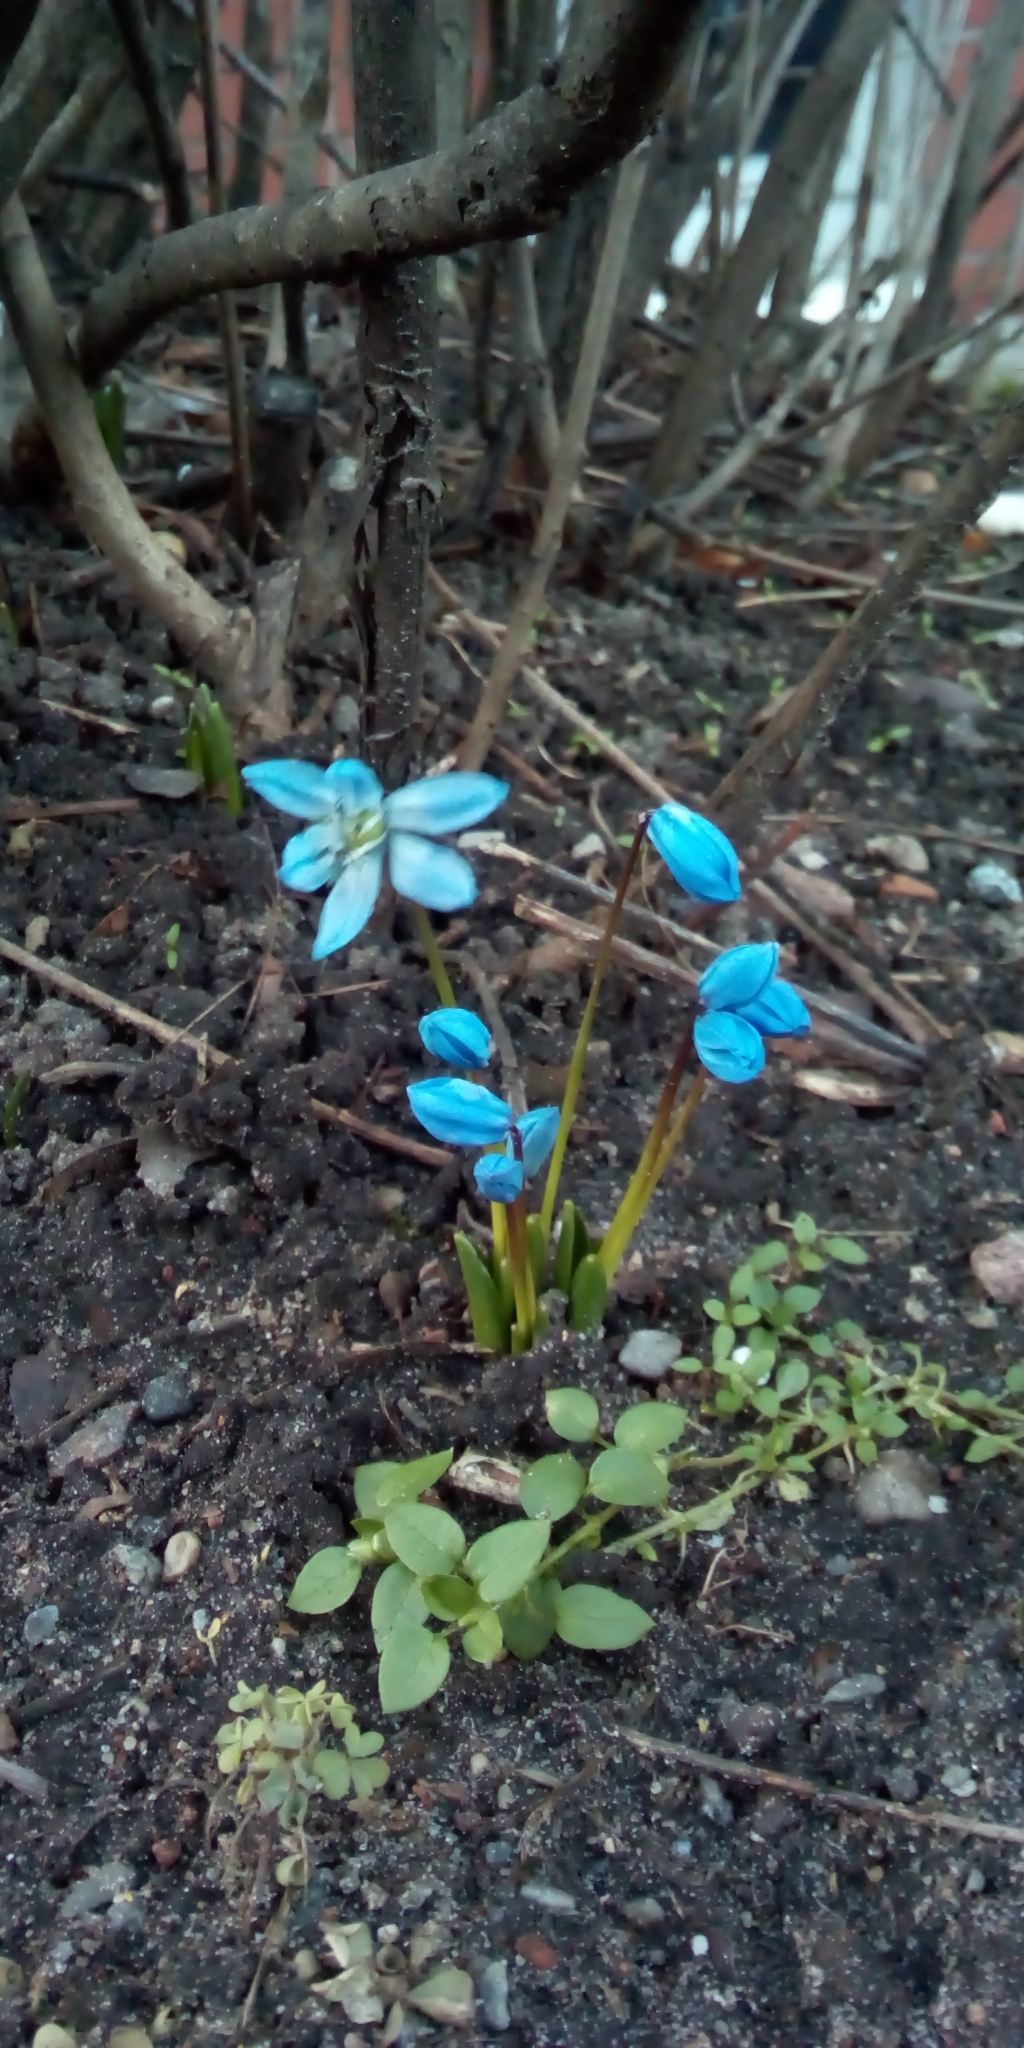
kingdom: Plantae
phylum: Tracheophyta
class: Liliopsida
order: Asparagales
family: Asparagaceae
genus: Scilla
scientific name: Scilla siberica
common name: Siberian squill
